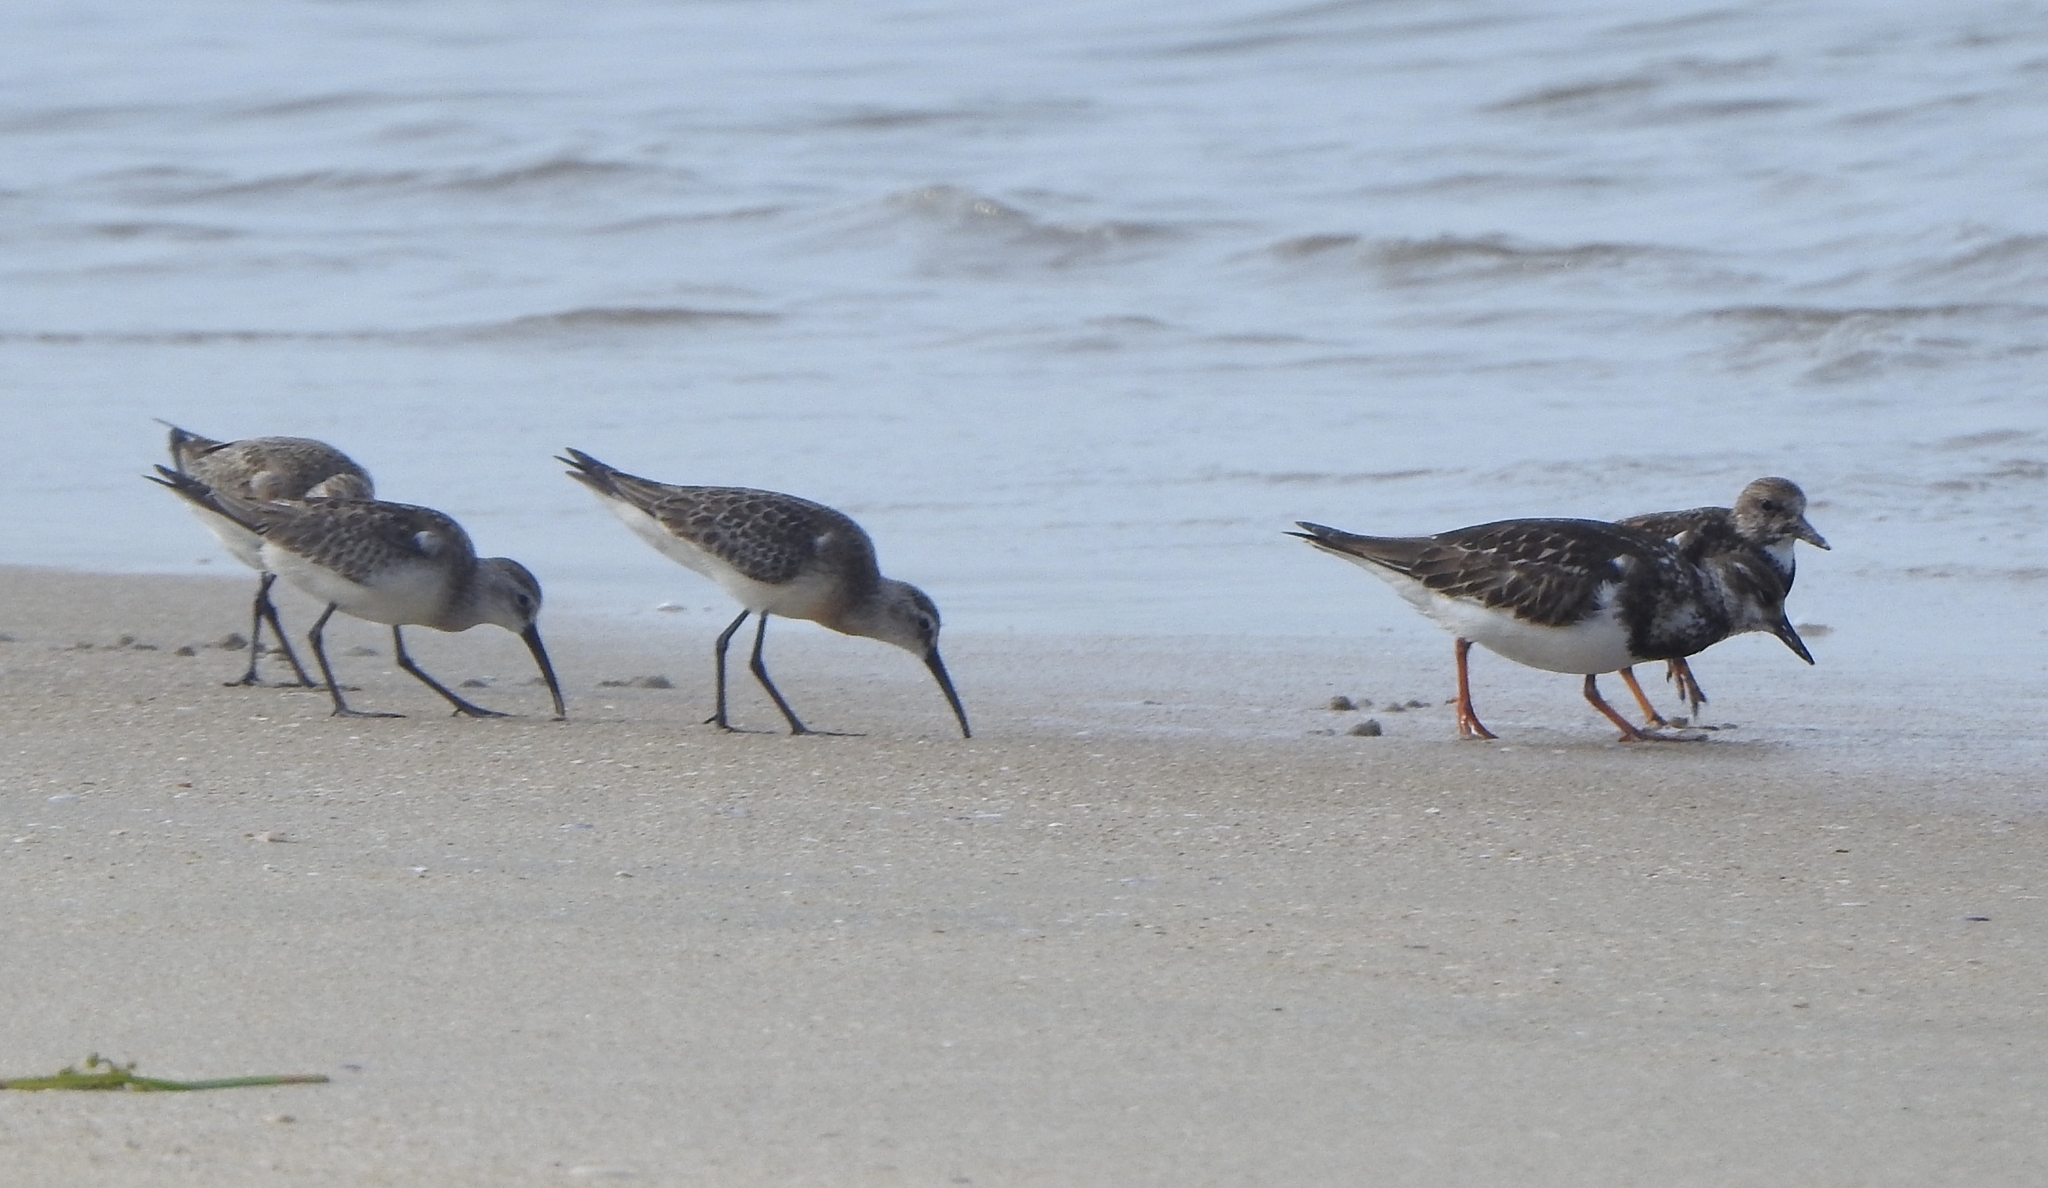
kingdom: Animalia
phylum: Chordata
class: Aves
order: Charadriiformes
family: Scolopacidae
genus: Arenaria
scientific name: Arenaria interpres
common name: Ruddy turnstone
